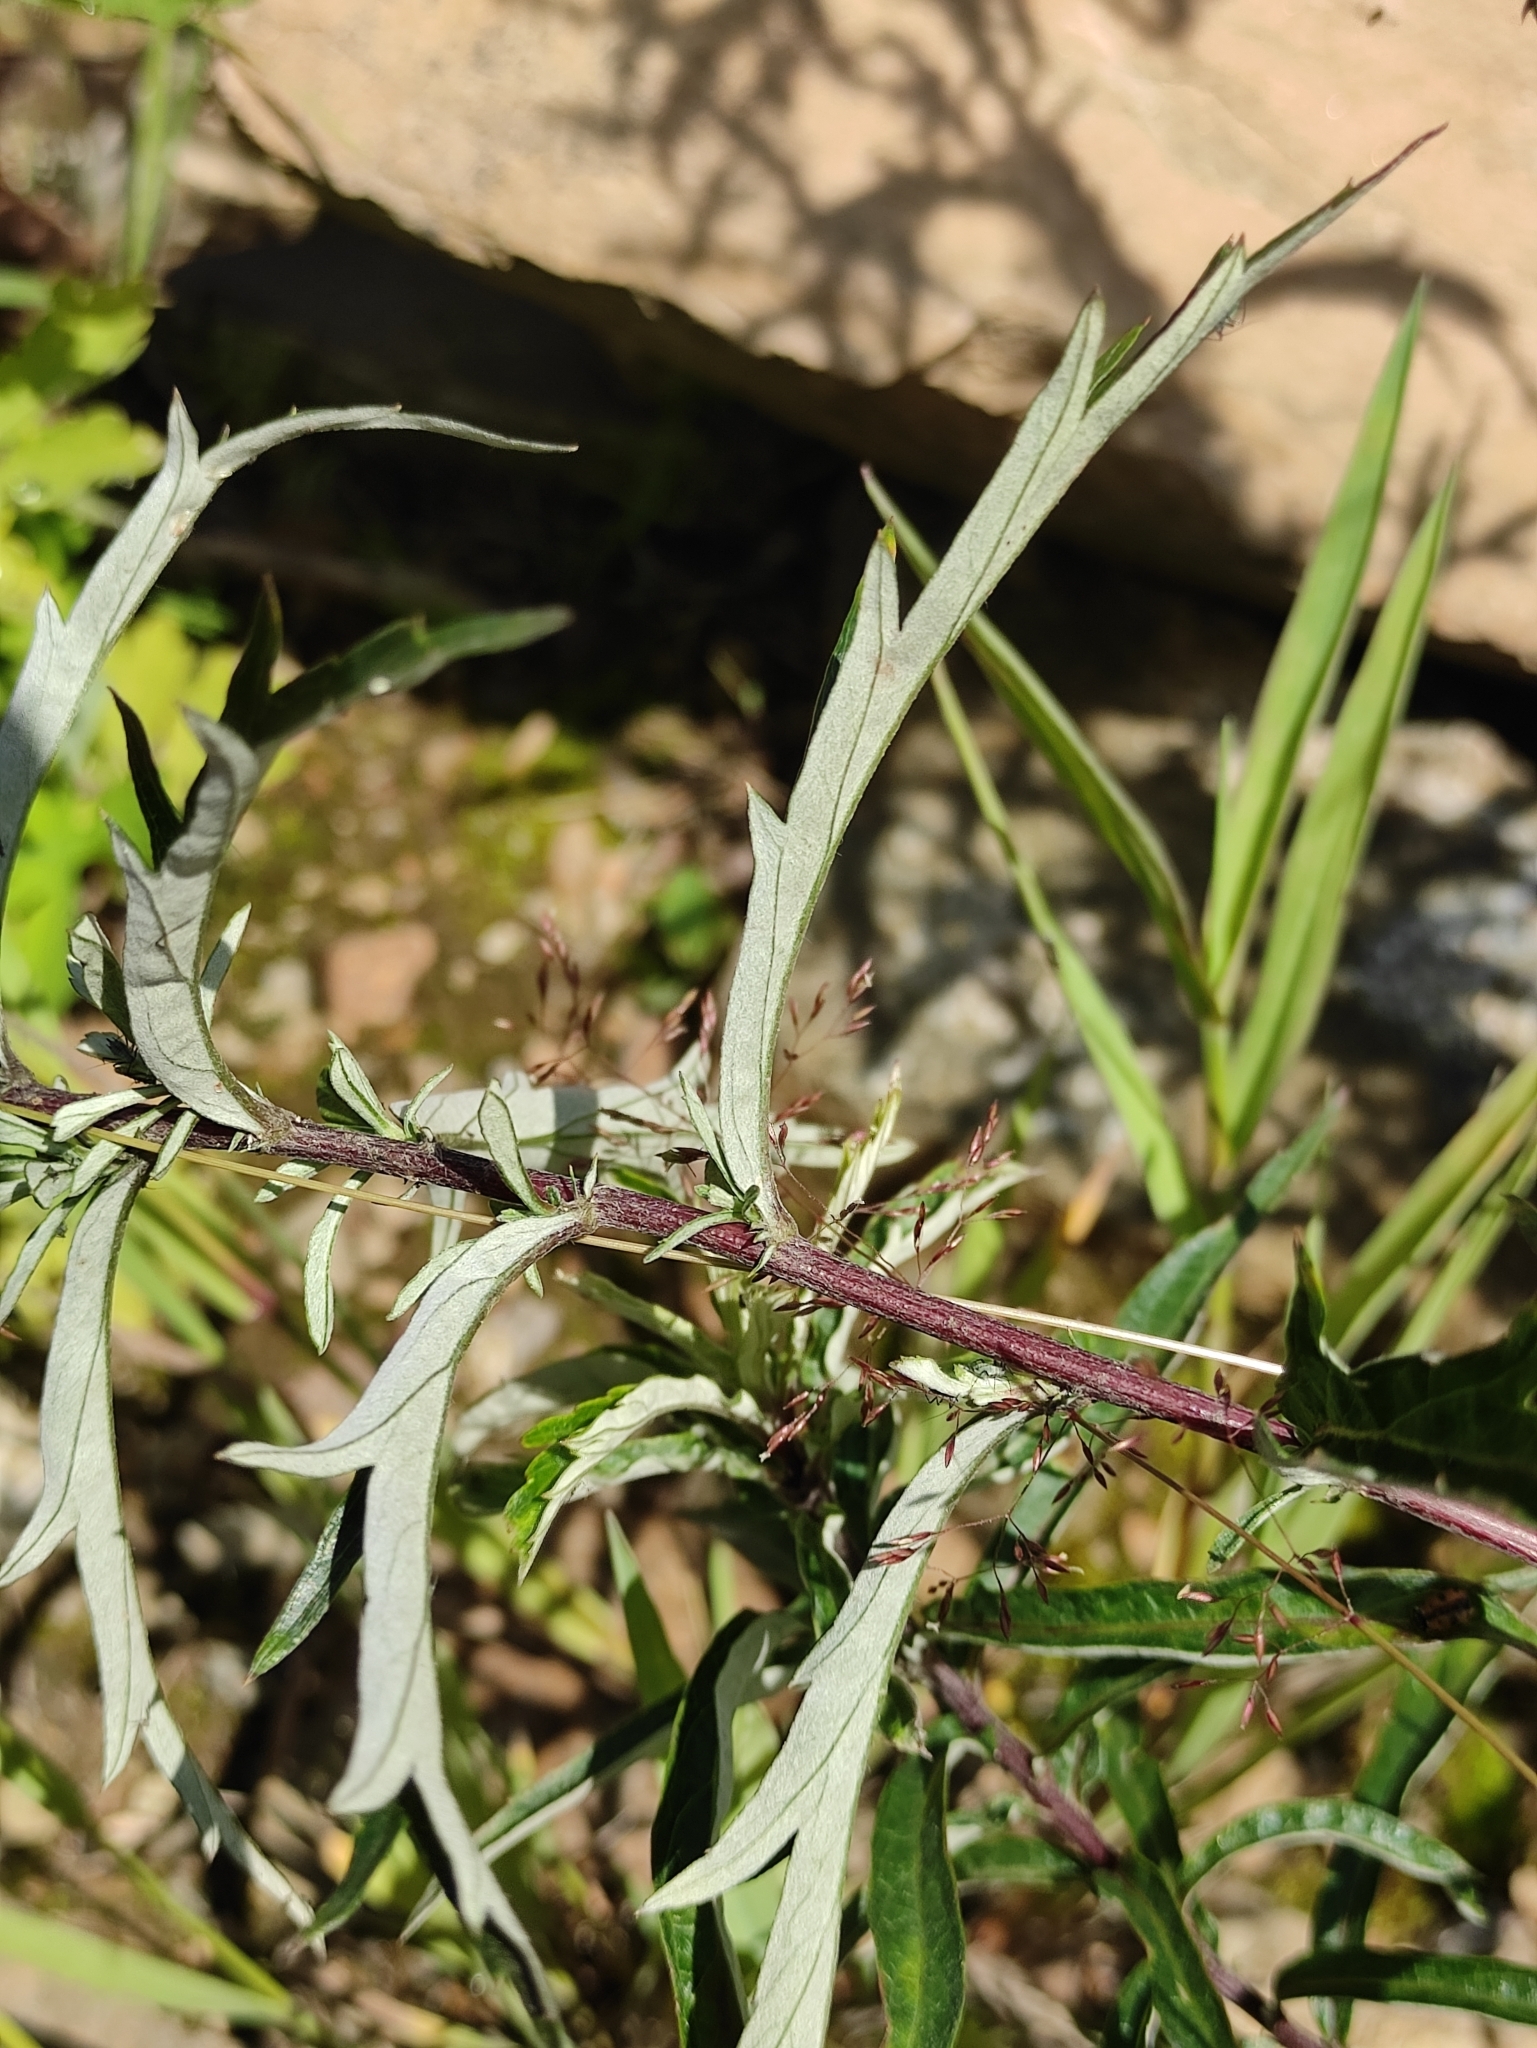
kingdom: Plantae
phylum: Tracheophyta
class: Magnoliopsida
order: Asterales
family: Asteraceae
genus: Artemisia
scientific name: Artemisia integrifolia
